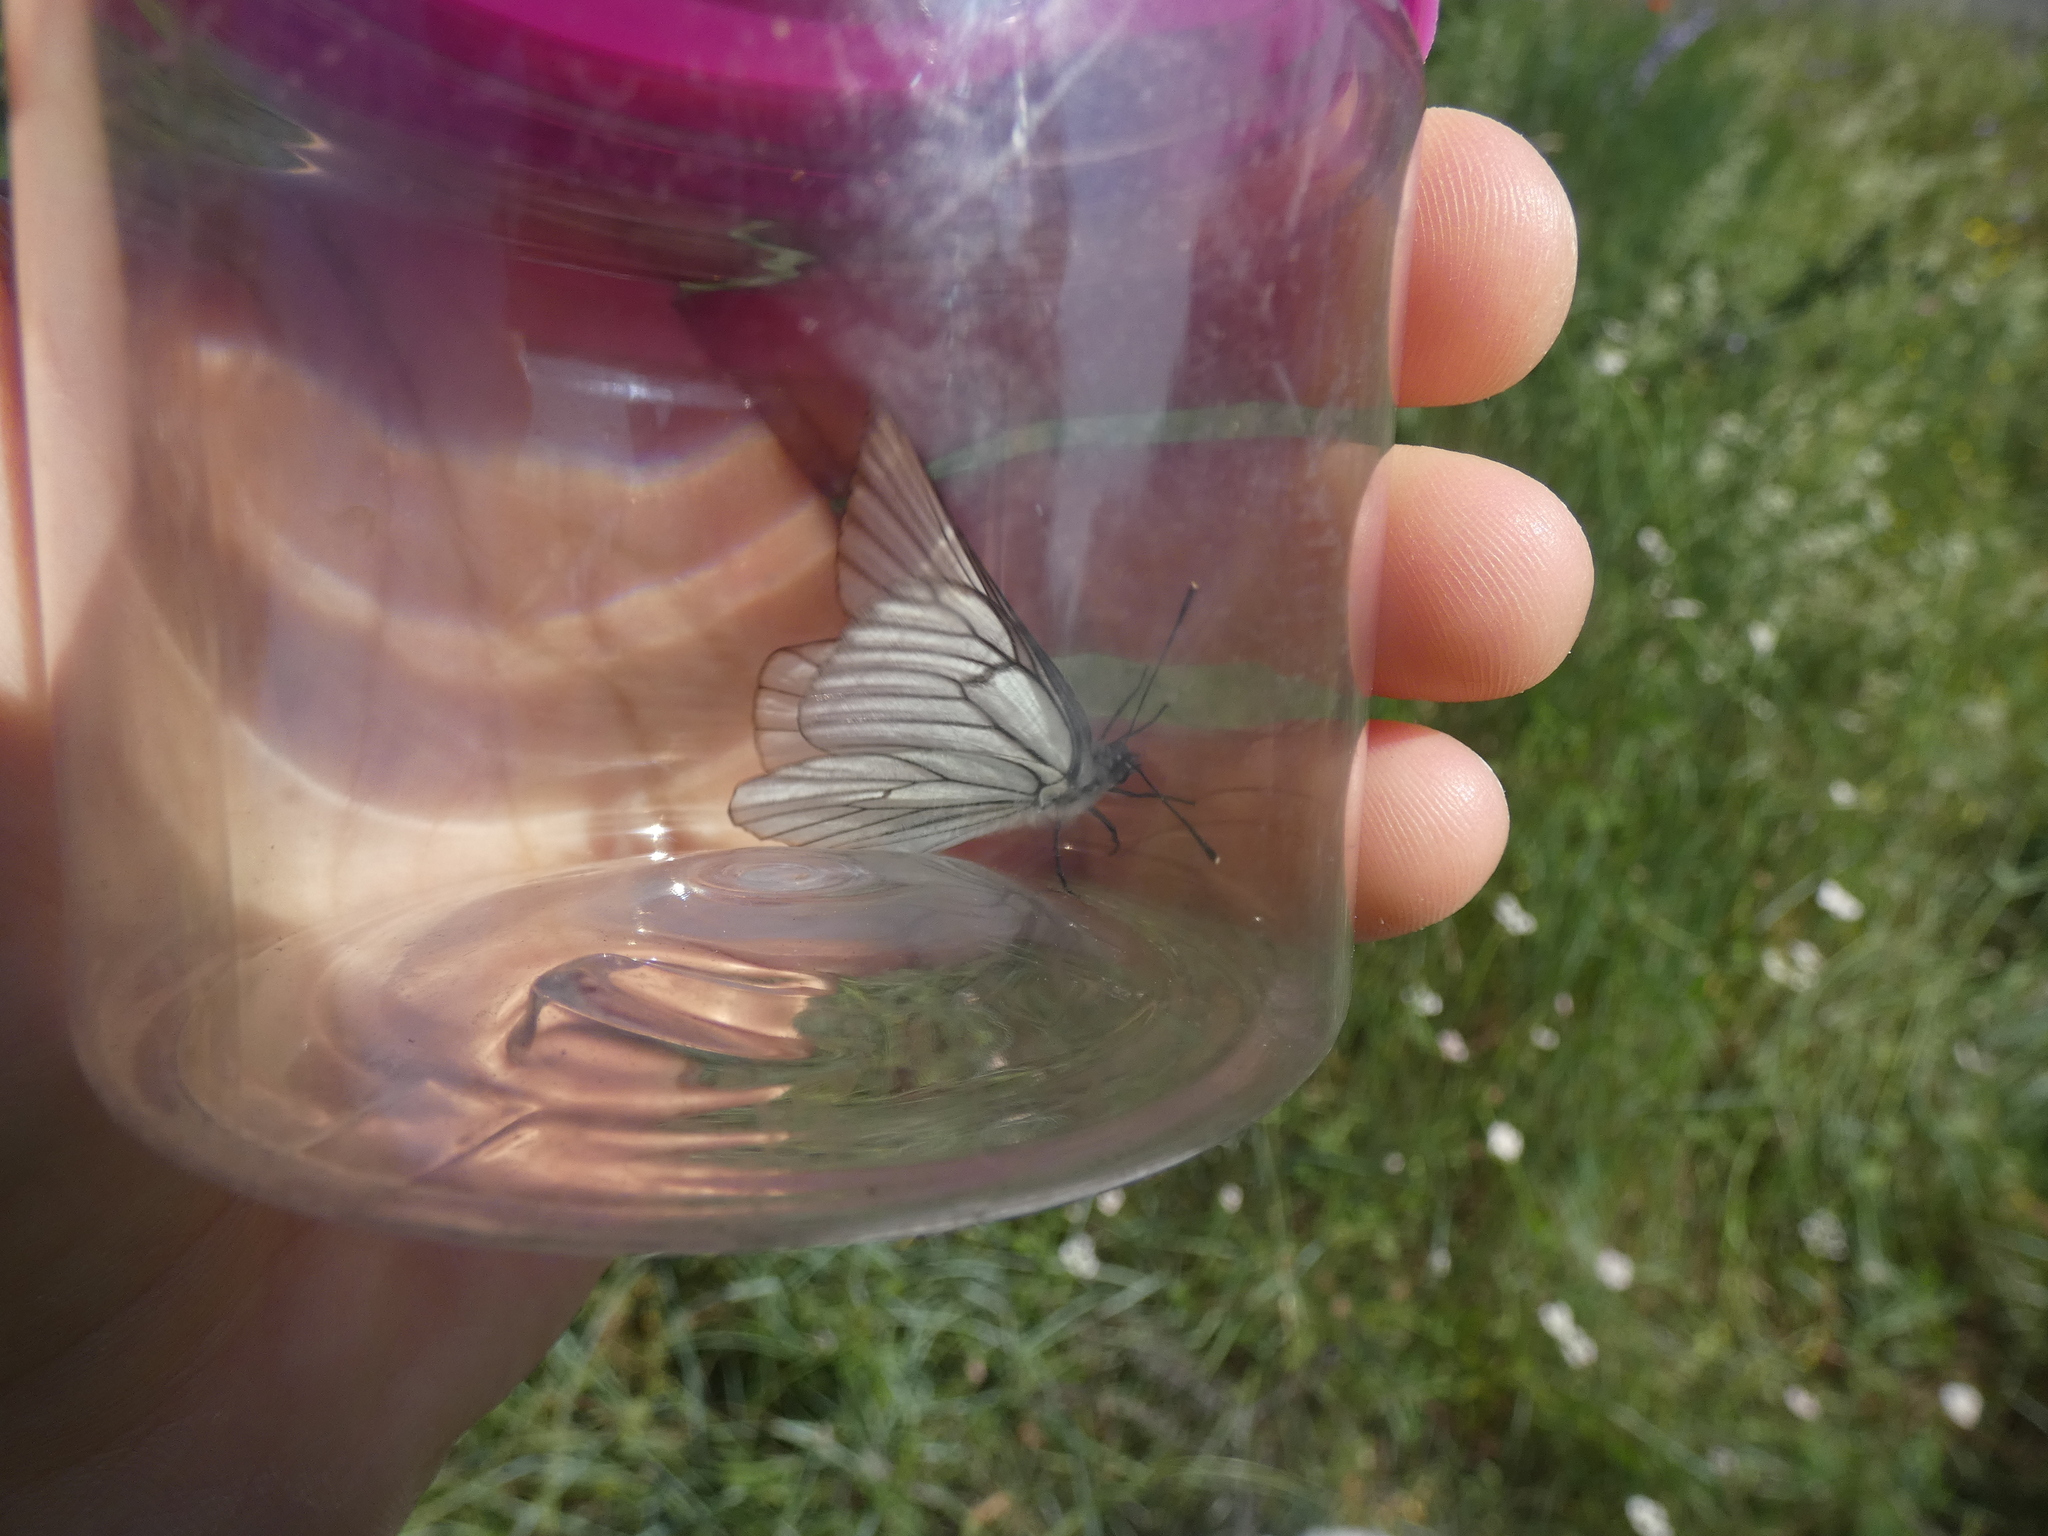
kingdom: Animalia
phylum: Arthropoda
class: Insecta
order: Lepidoptera
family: Pieridae
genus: Aporia
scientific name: Aporia crataegi
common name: Black-veined white
